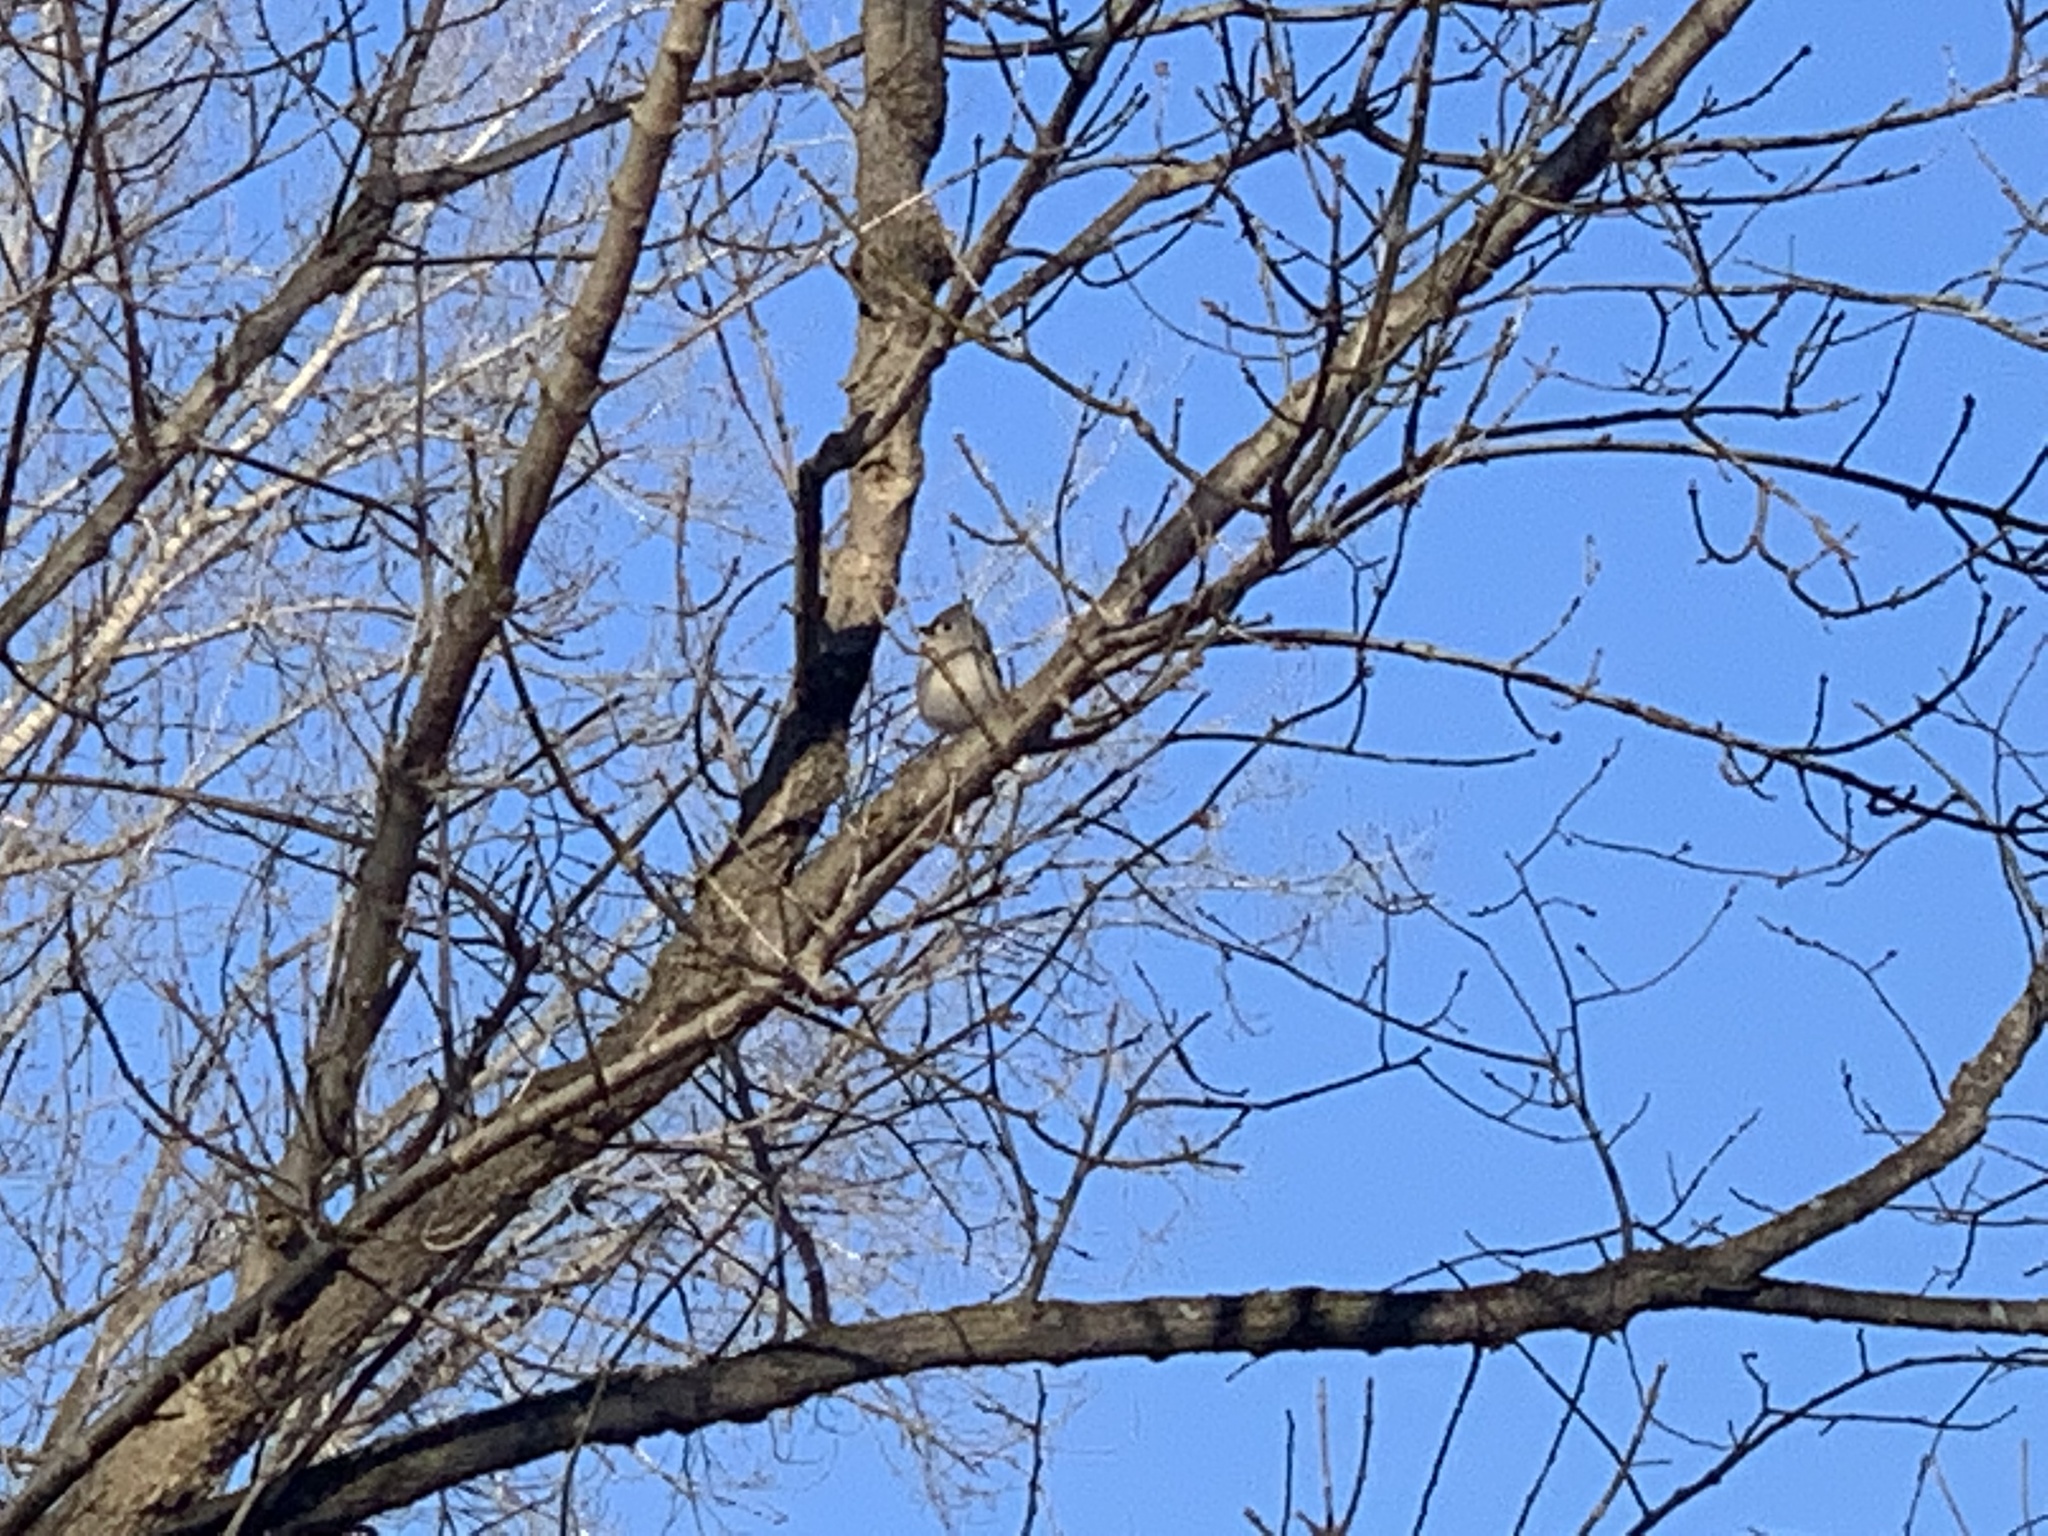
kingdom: Animalia
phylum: Chordata
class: Aves
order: Passeriformes
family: Paridae
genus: Baeolophus
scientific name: Baeolophus bicolor
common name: Tufted titmouse
